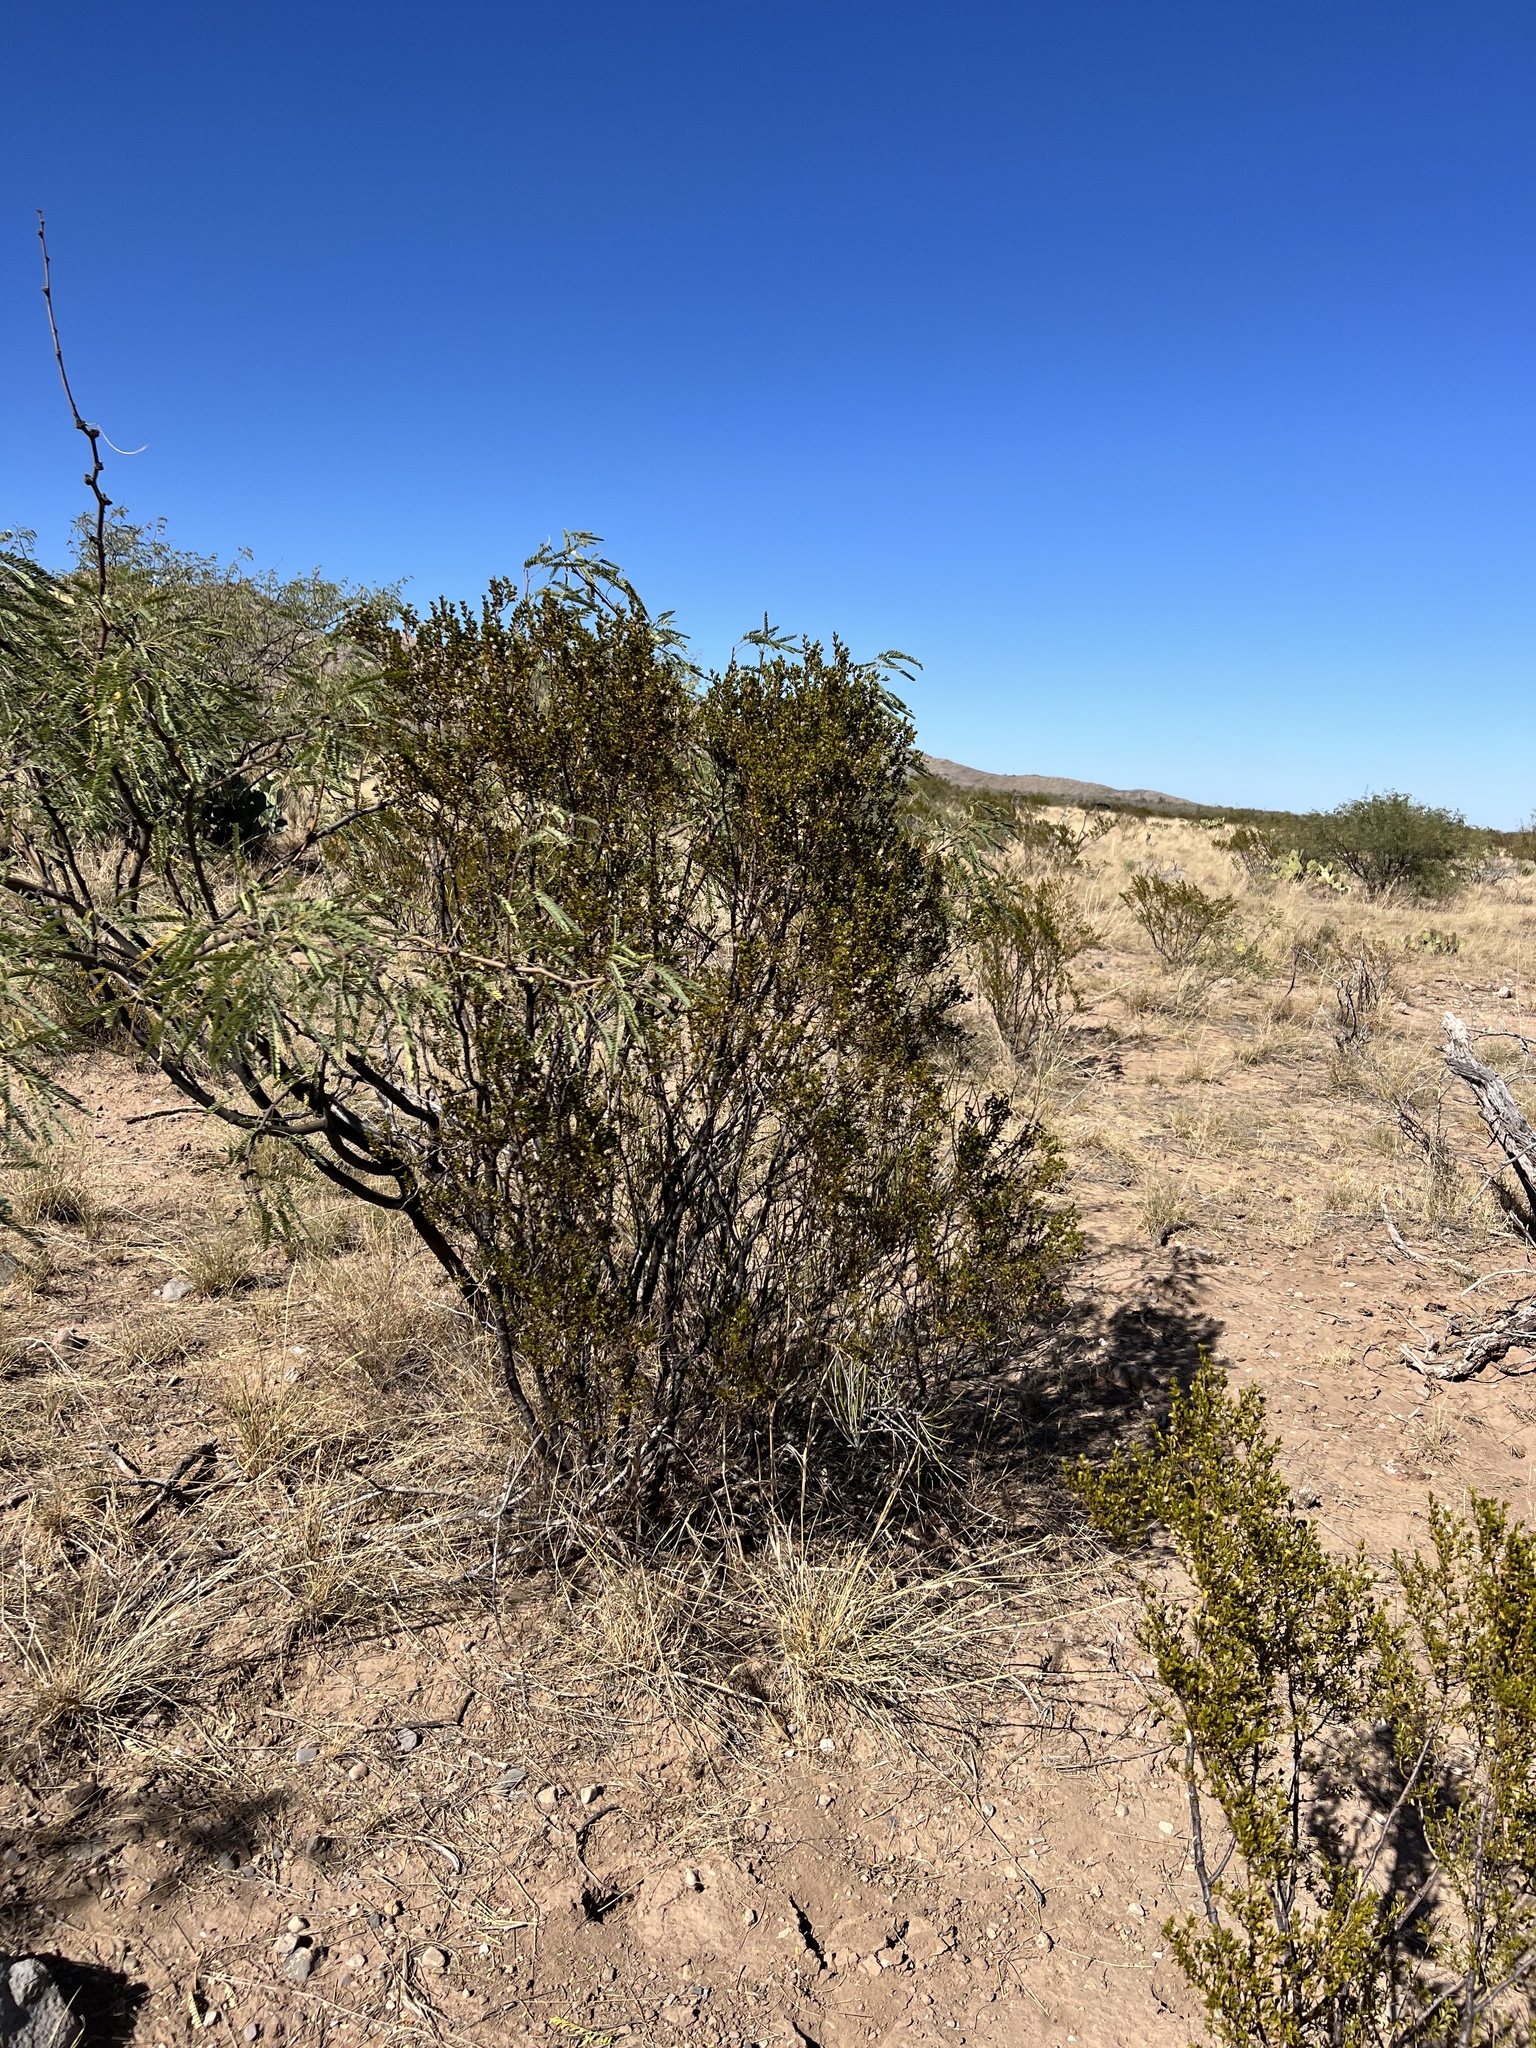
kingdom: Plantae
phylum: Tracheophyta
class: Magnoliopsida
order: Zygophyllales
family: Zygophyllaceae
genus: Larrea
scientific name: Larrea tridentata
